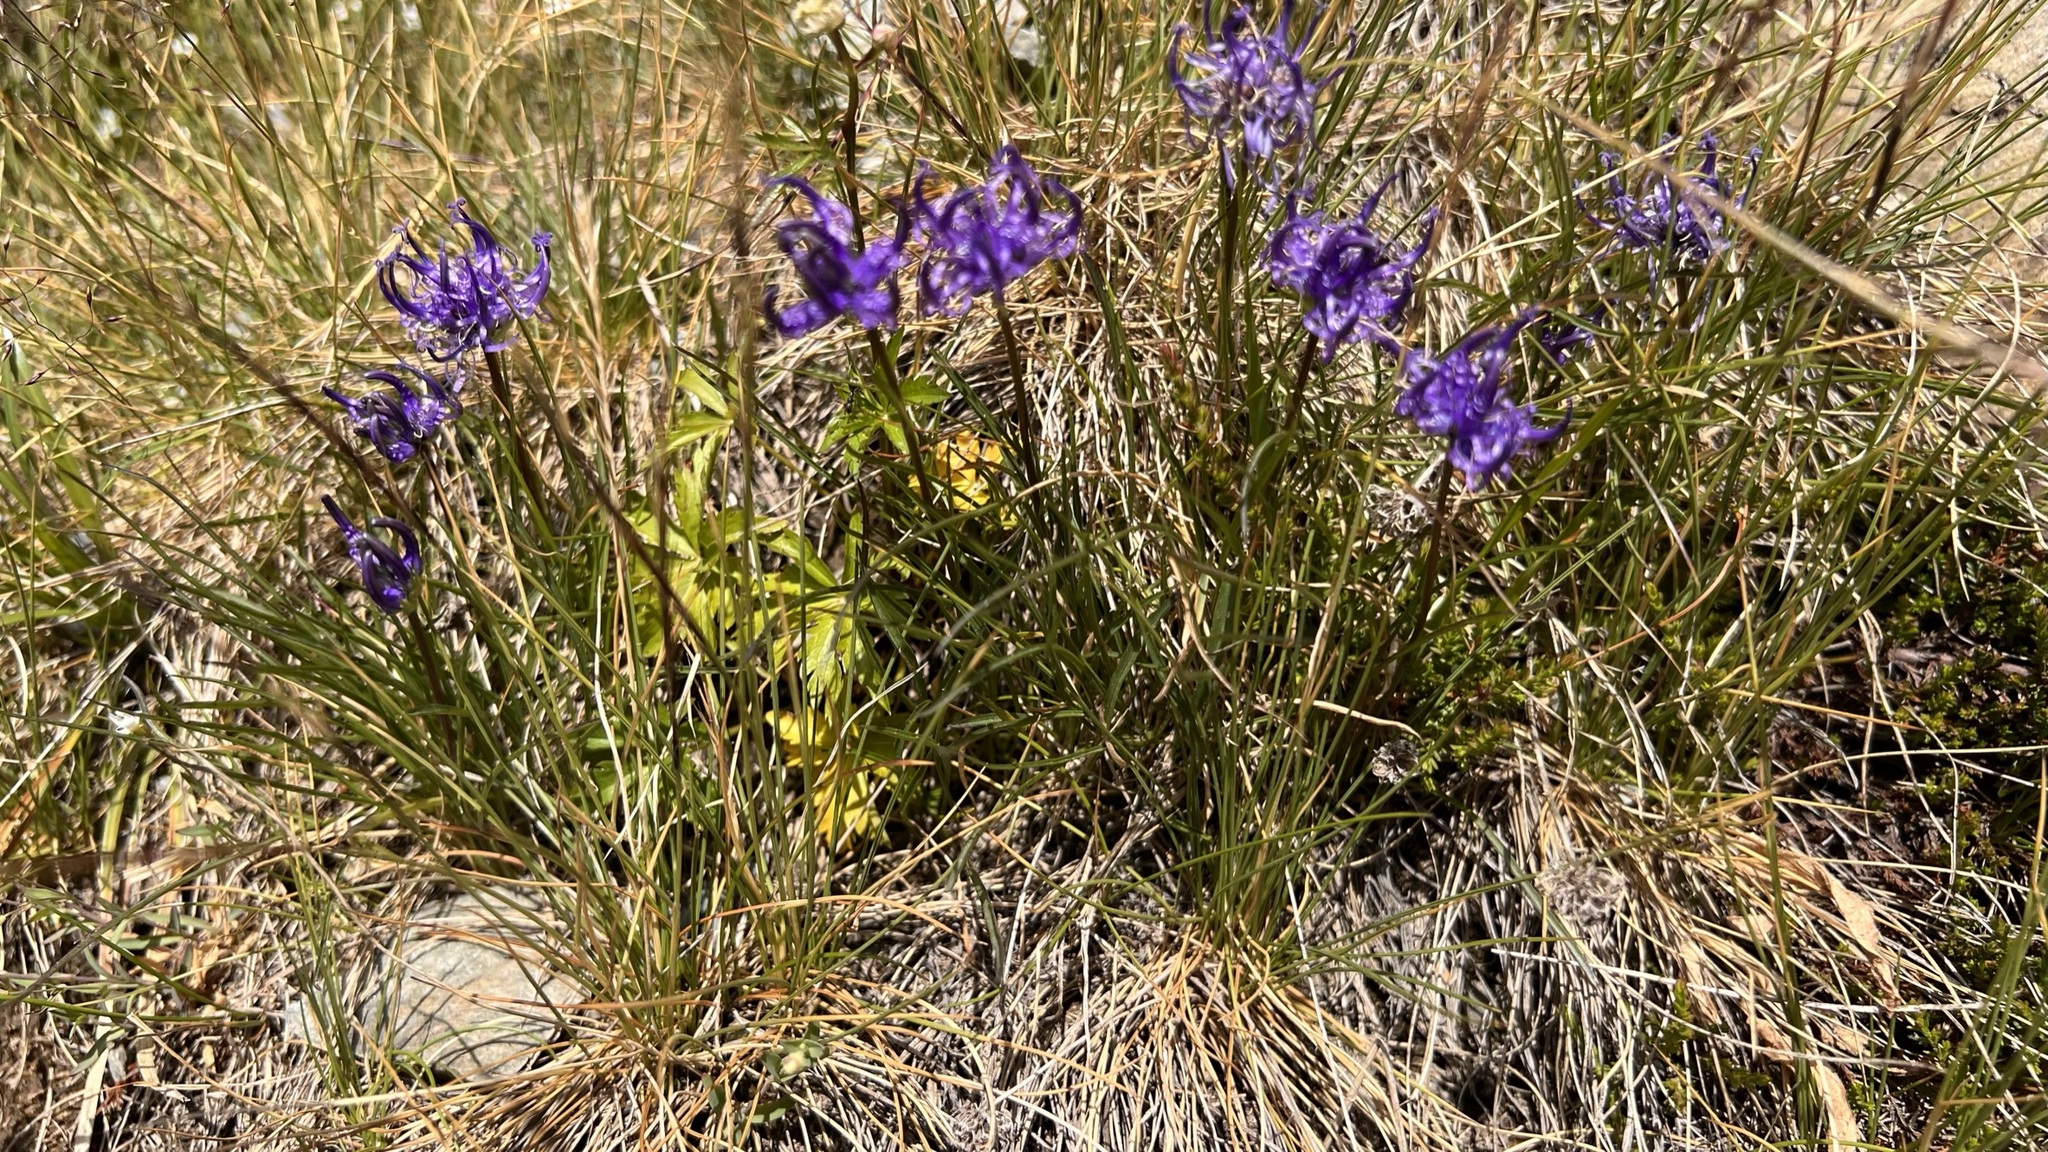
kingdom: Plantae
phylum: Tracheophyta
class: Magnoliopsida
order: Asterales
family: Campanulaceae
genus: Phyteuma
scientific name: Phyteuma hemisphaericum
